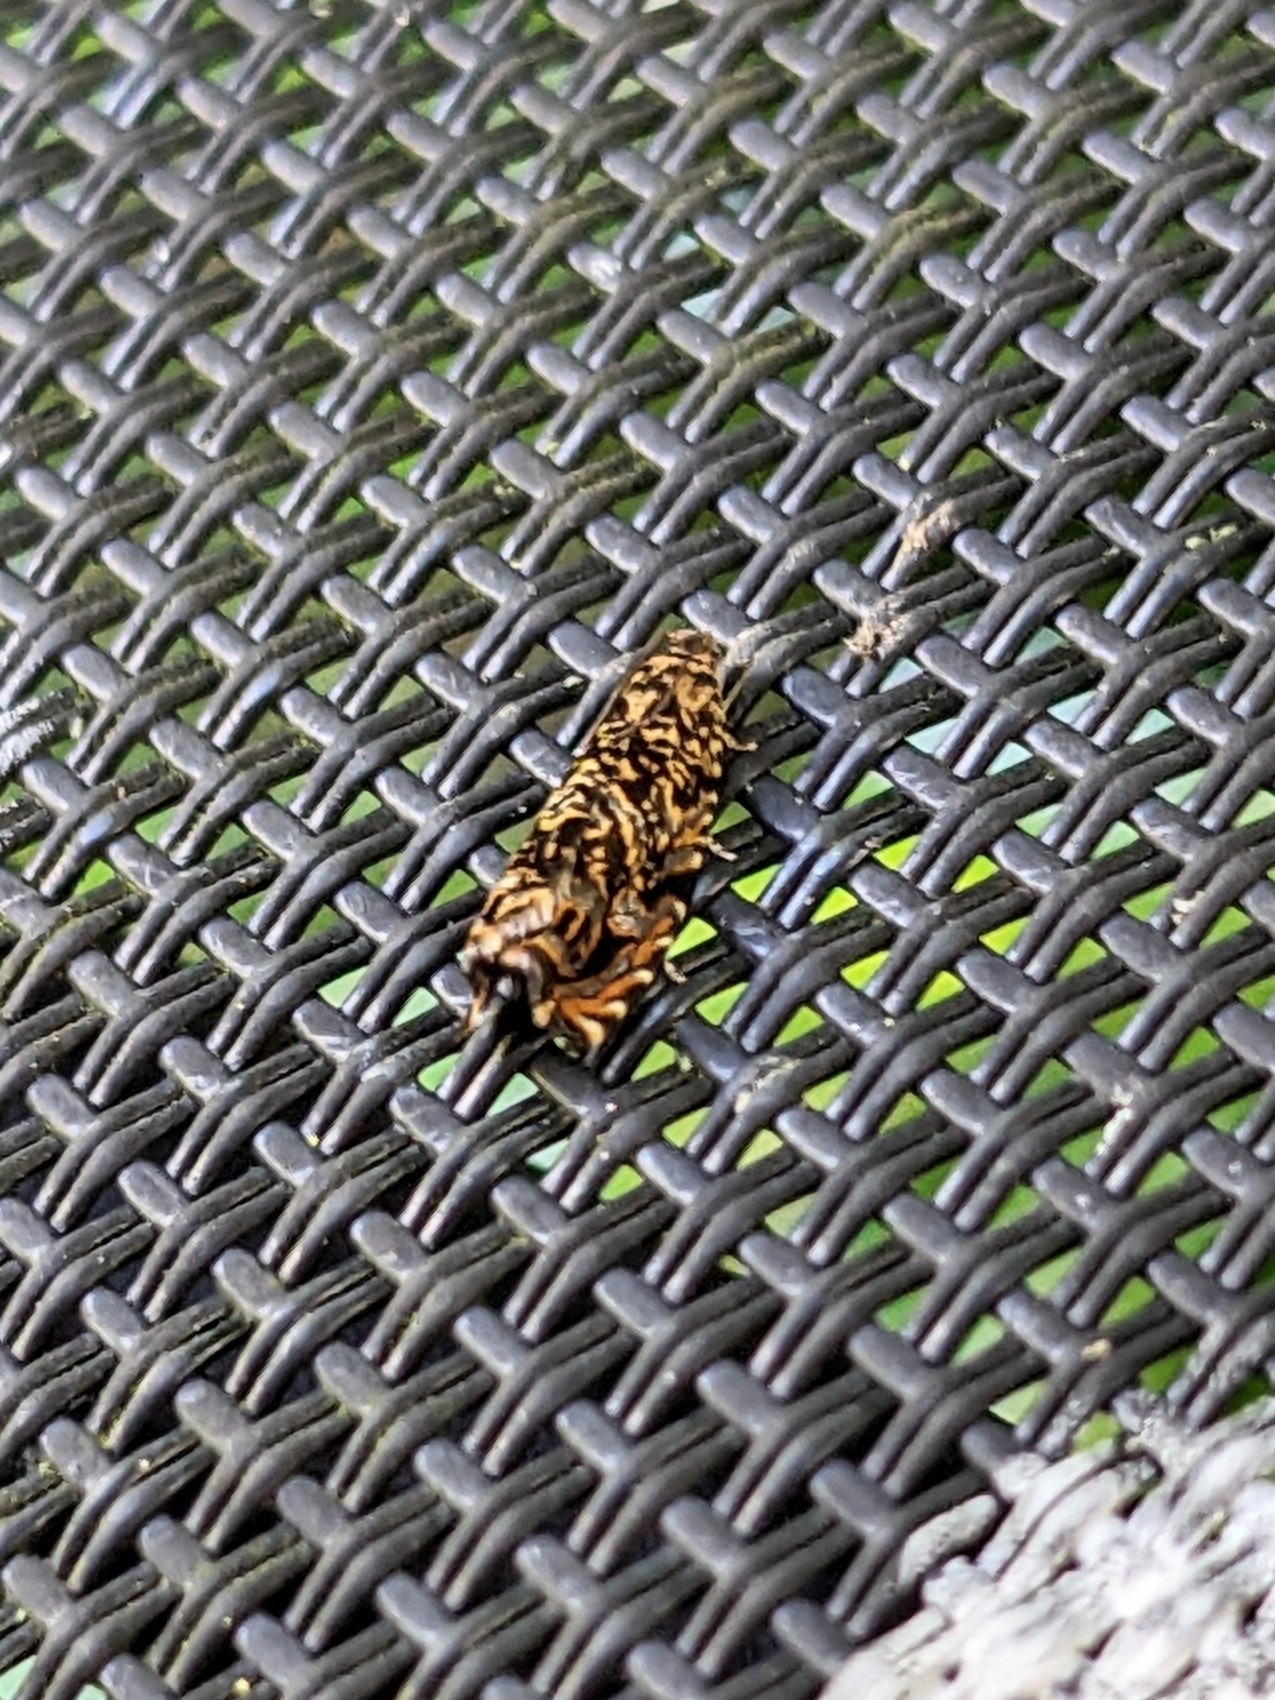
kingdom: Animalia
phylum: Arthropoda
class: Insecta
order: Lepidoptera
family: Tortricidae
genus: Enarmonia
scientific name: Enarmonia formosana
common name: Cherry bark tortrix
